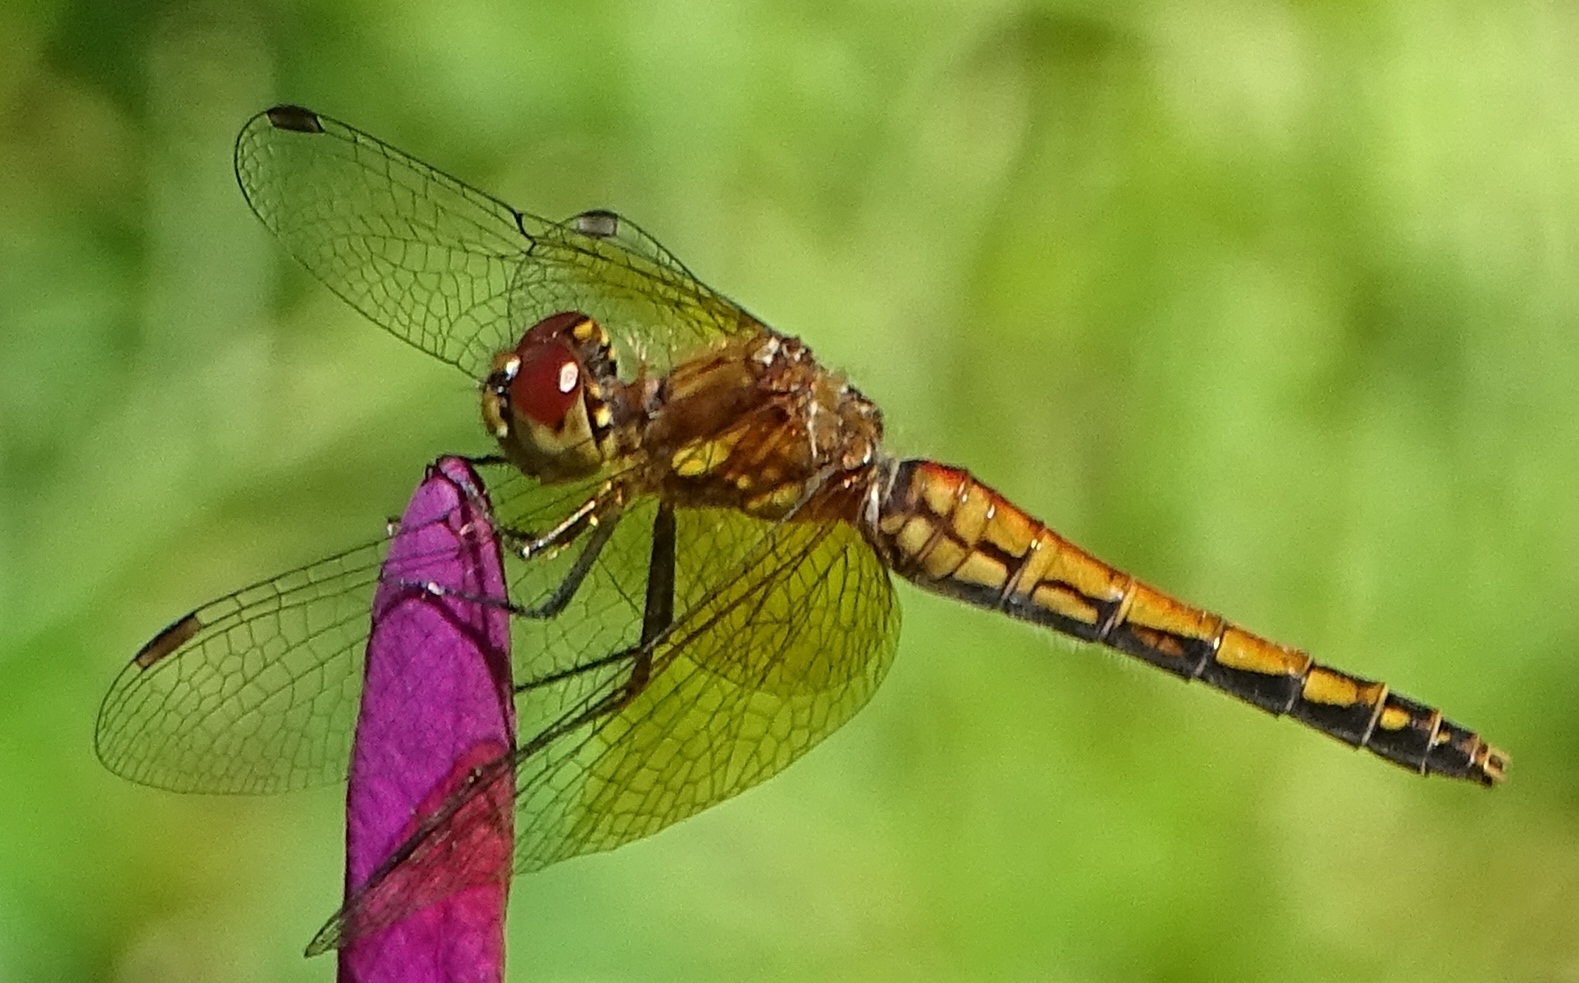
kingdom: Animalia
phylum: Arthropoda
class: Insecta
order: Odonata
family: Libellulidae
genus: Sympetrum
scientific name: Sympetrum semicinctum
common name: Band-winged meadowhawk
